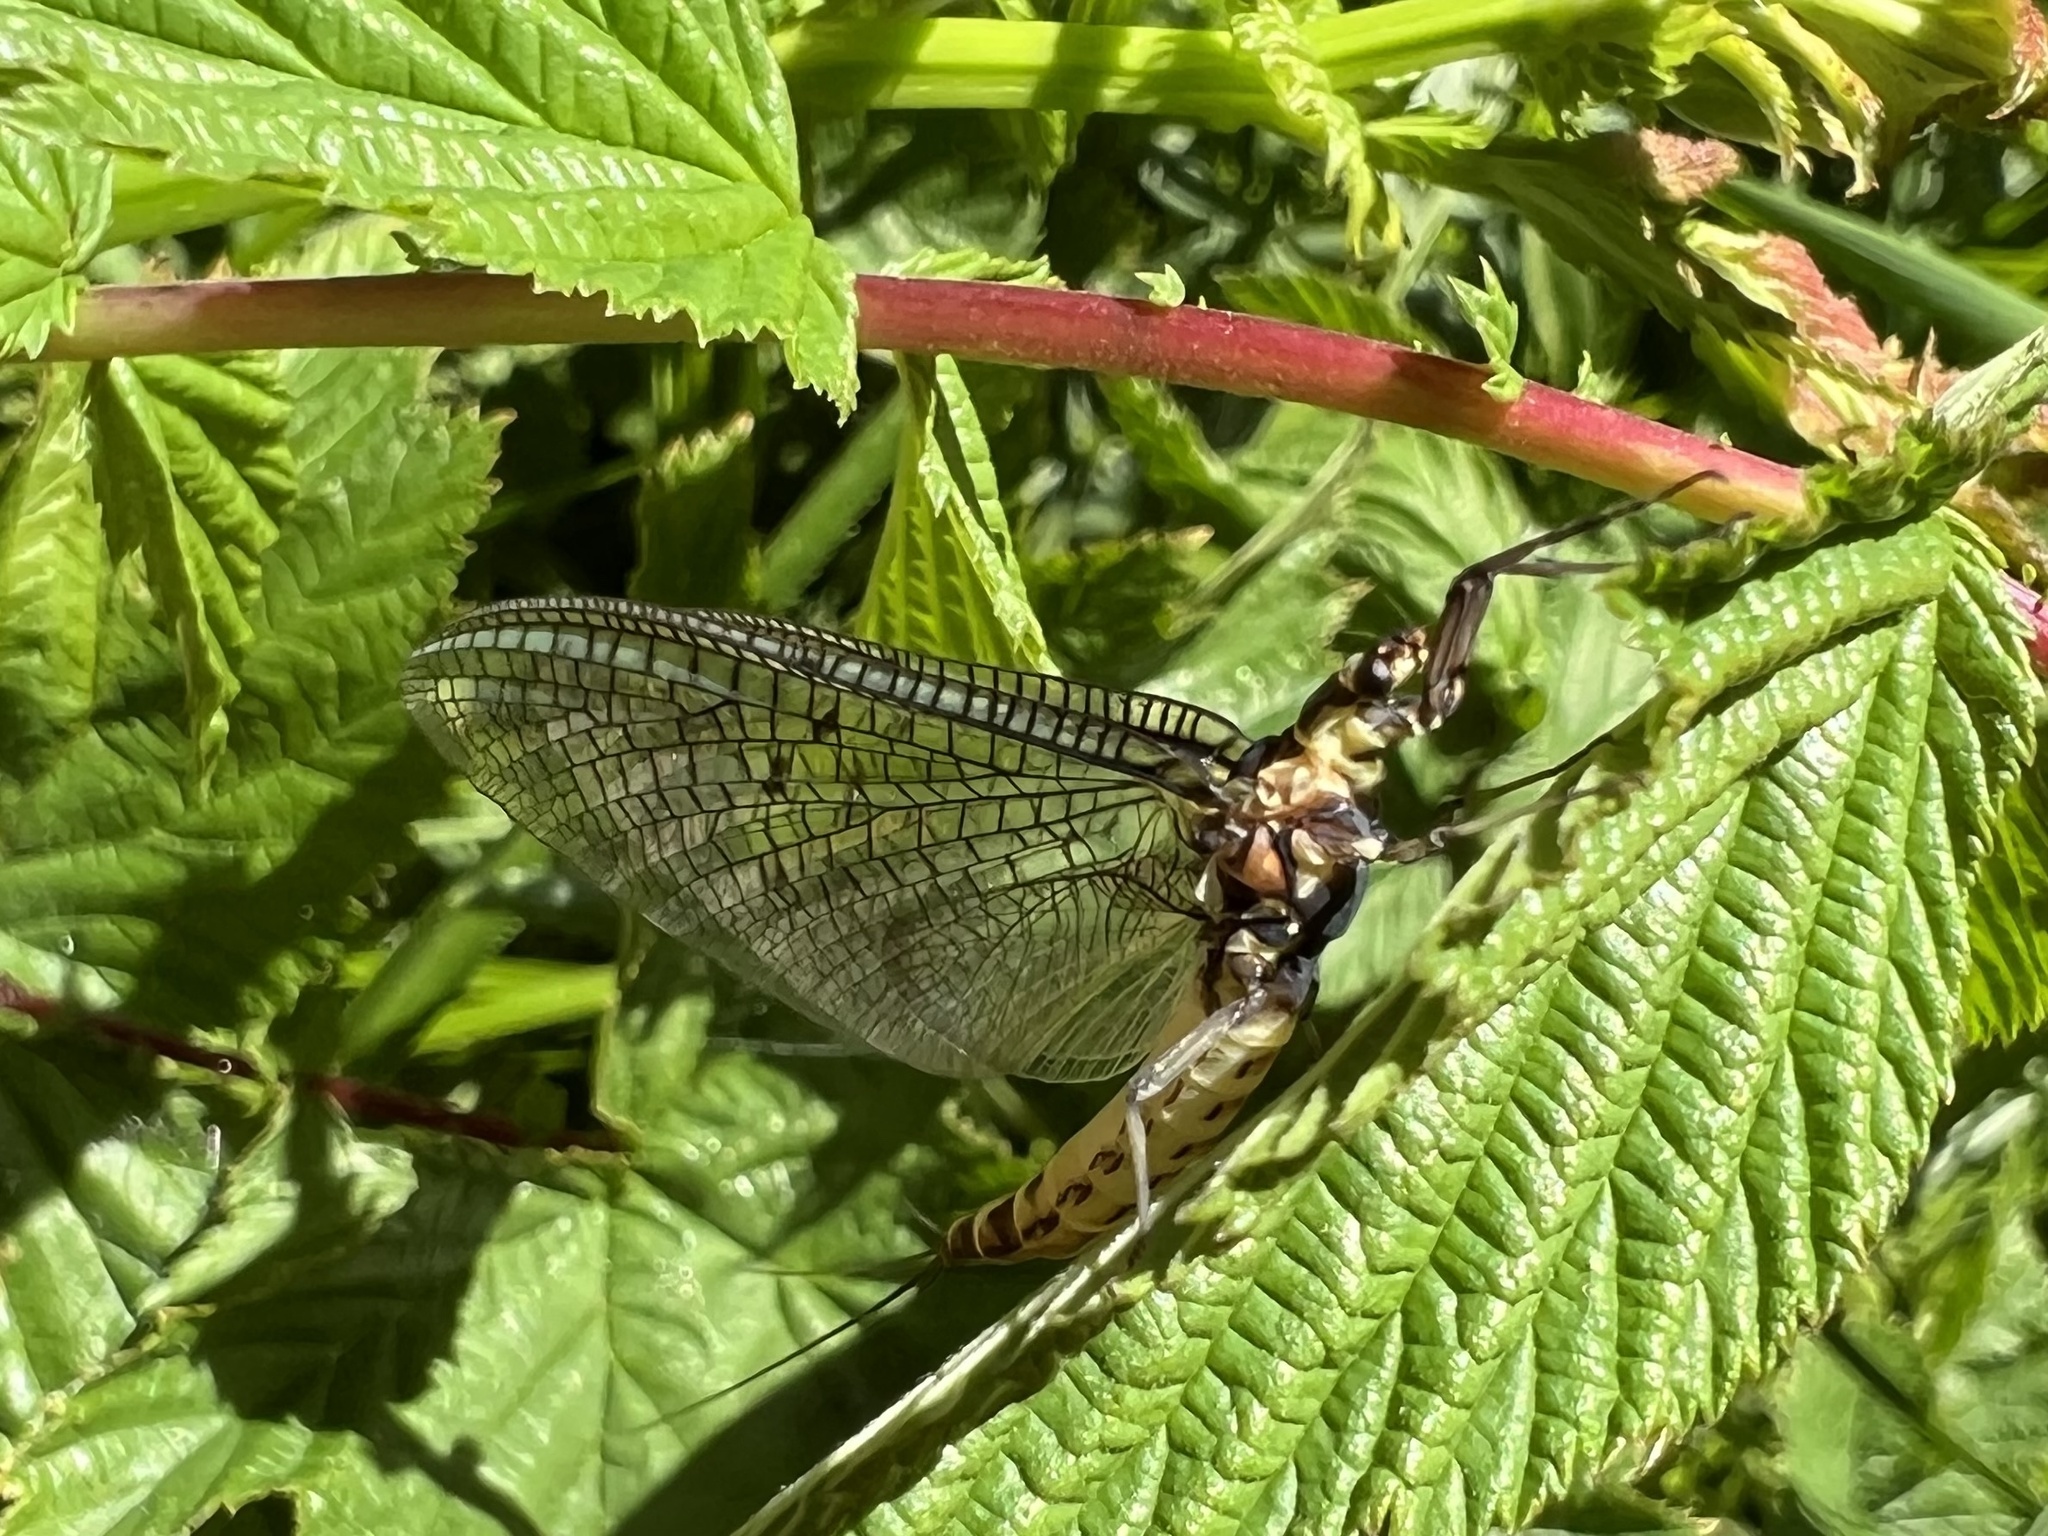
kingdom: Animalia
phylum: Arthropoda
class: Insecta
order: Ephemeroptera
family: Ephemeridae
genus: Ephemera
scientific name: Ephemera danica
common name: Green dun
